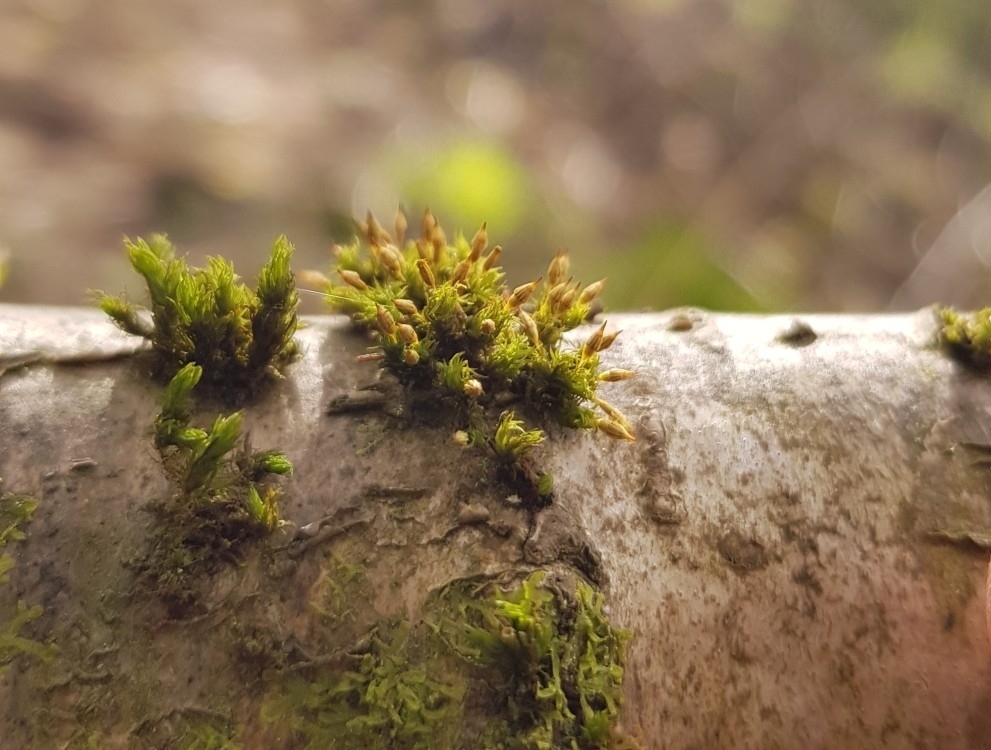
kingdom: Plantae
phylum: Bryophyta
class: Bryopsida
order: Orthotrichales
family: Orthotrichaceae
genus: Orthotrichum
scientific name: Orthotrichum pulchellum
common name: Elegant bristle-moss
